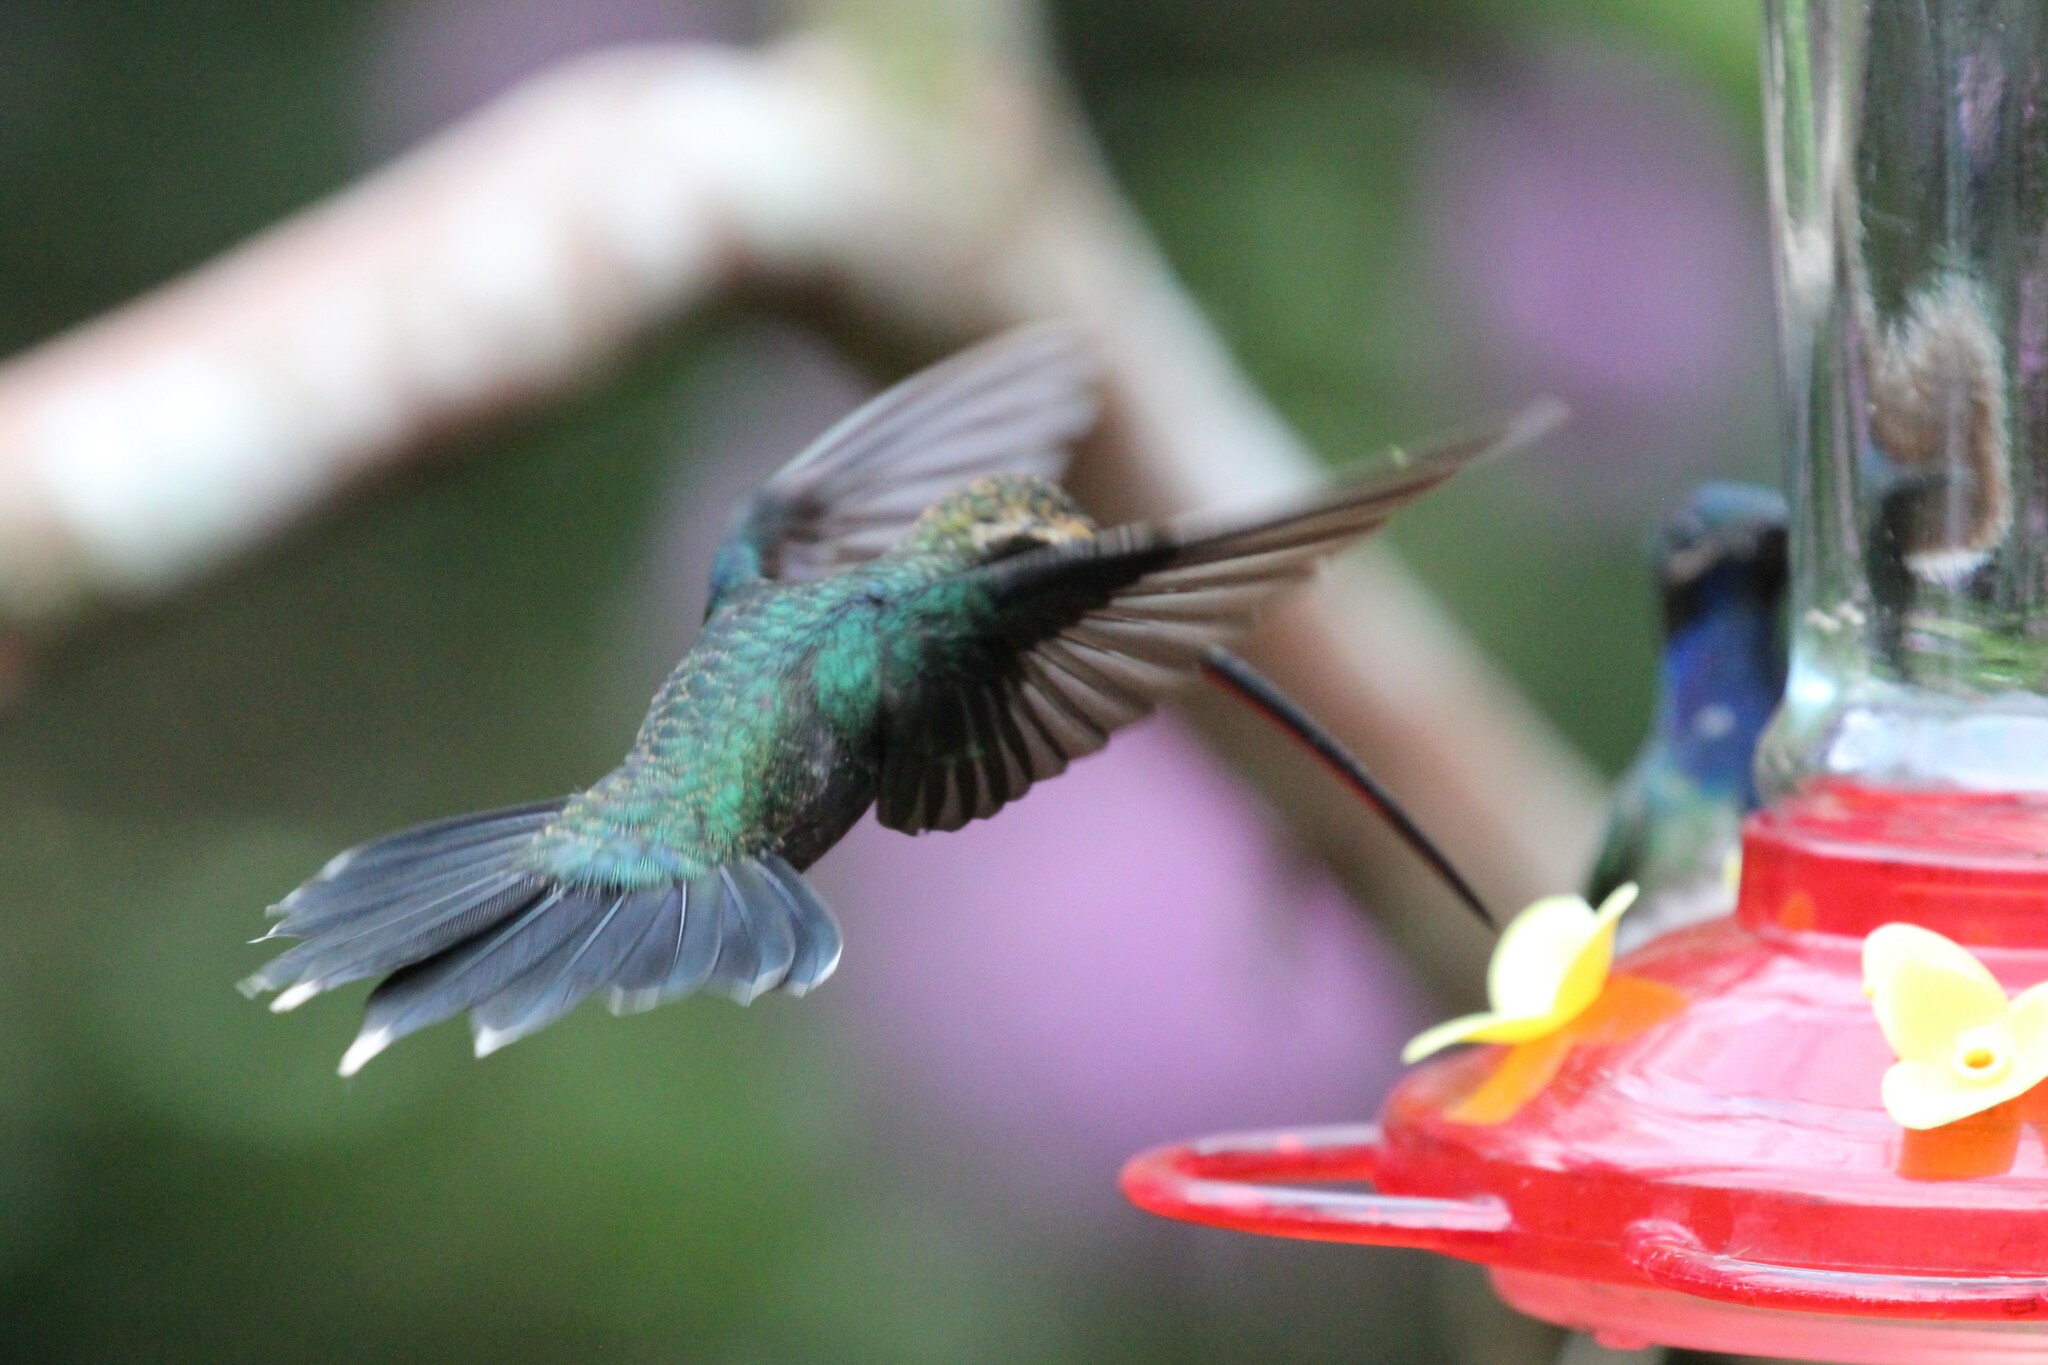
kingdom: Animalia
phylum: Chordata
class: Aves
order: Apodiformes
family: Trochilidae
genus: Phaethornis
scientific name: Phaethornis yaruqui
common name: White-whiskered hermit
